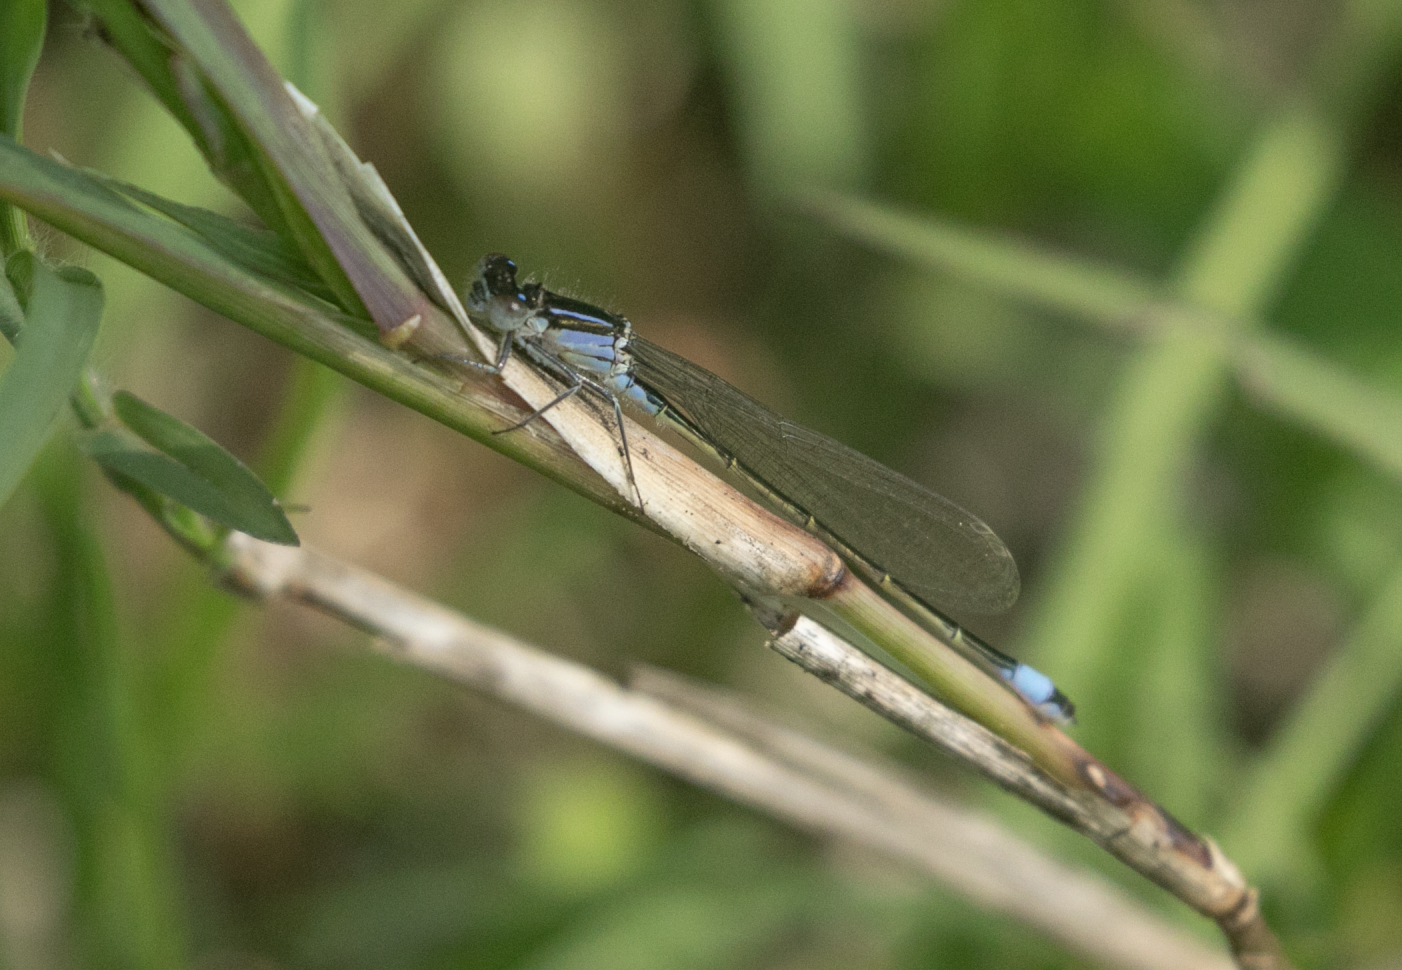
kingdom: Animalia
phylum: Arthropoda
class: Insecta
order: Odonata
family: Coenagrionidae
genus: Ischnura
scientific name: Ischnura elegans
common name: Blue-tailed damselfly
